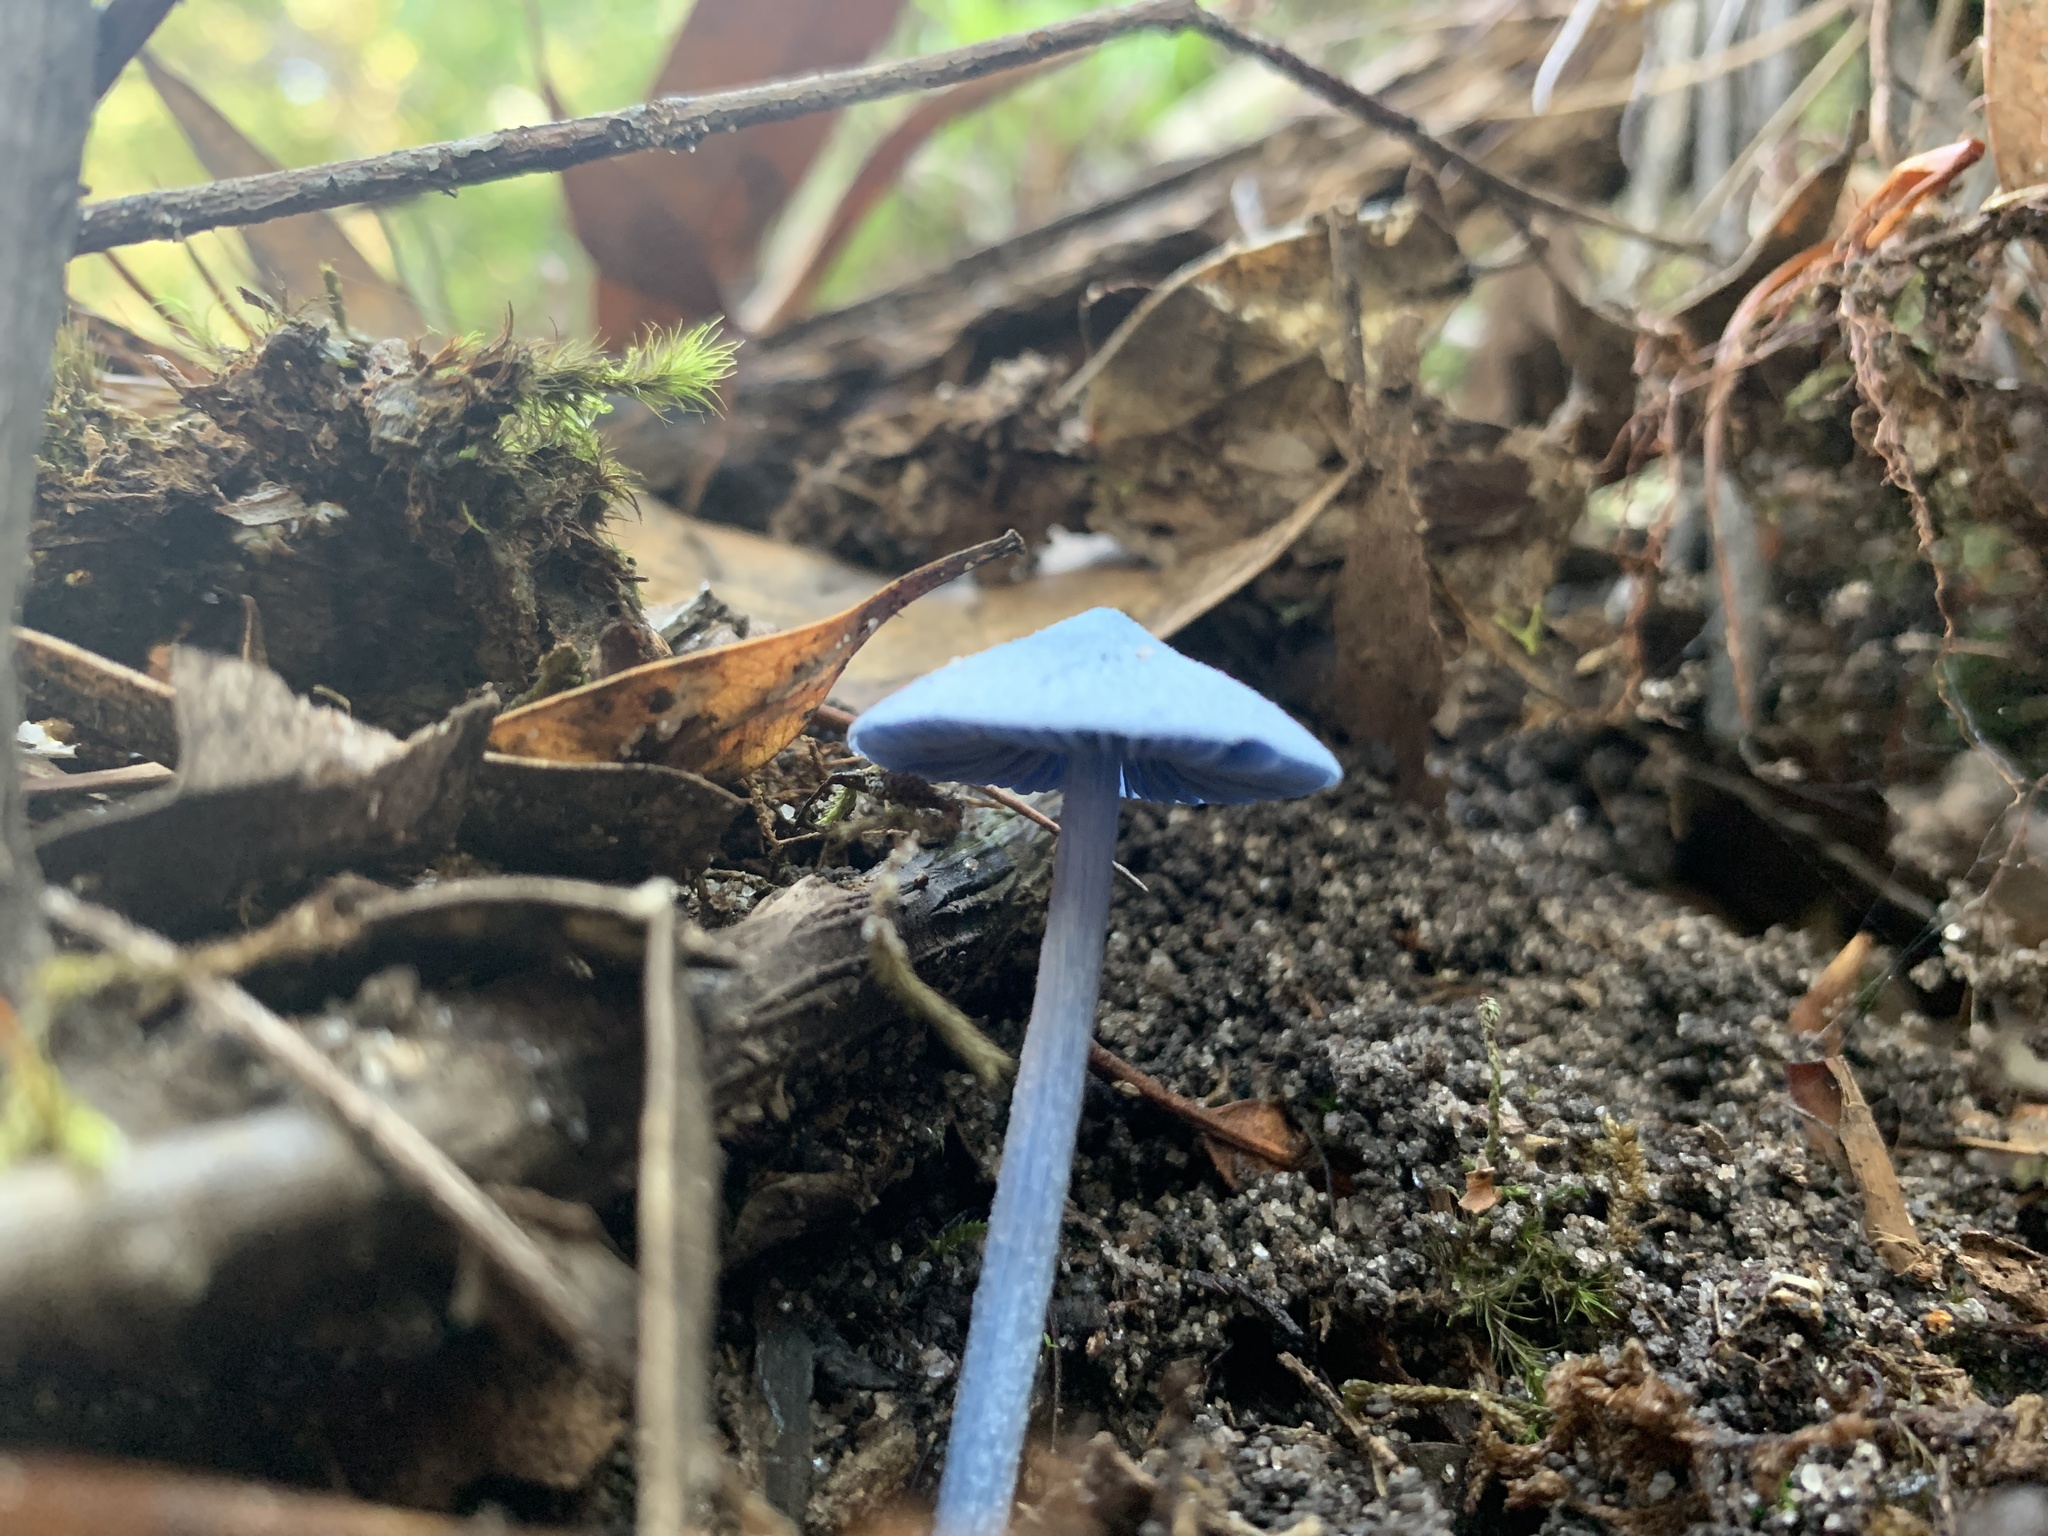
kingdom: Fungi
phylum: Basidiomycota
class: Agaricomycetes
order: Agaricales
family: Entolomataceae
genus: Entoloma
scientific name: Entoloma virescens
